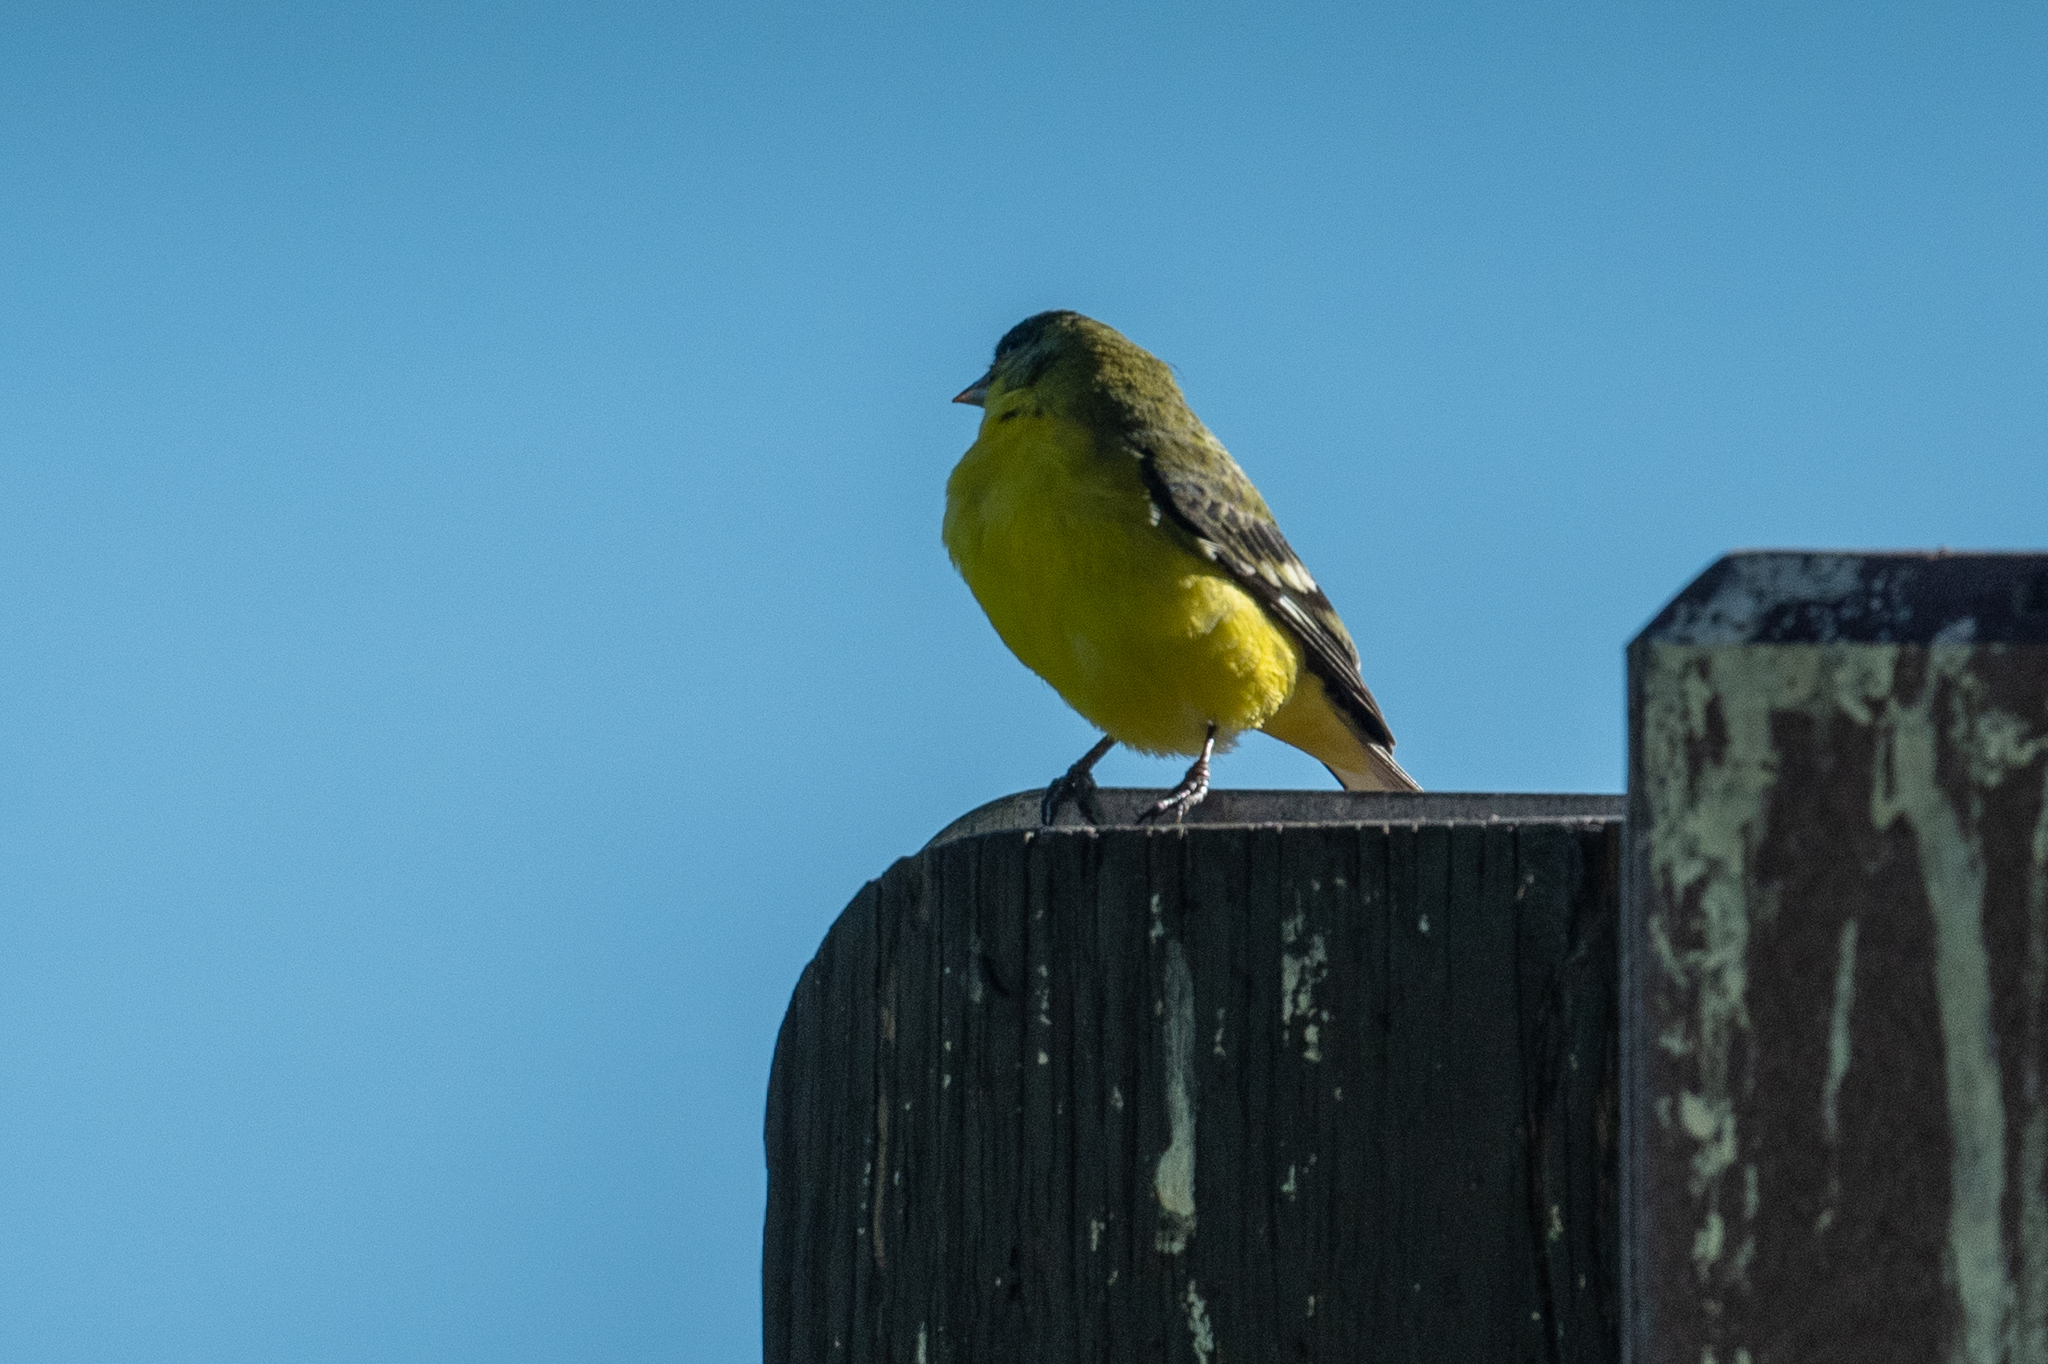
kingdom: Animalia
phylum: Chordata
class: Aves
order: Passeriformes
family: Fringillidae
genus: Spinus
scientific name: Spinus psaltria
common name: Lesser goldfinch
